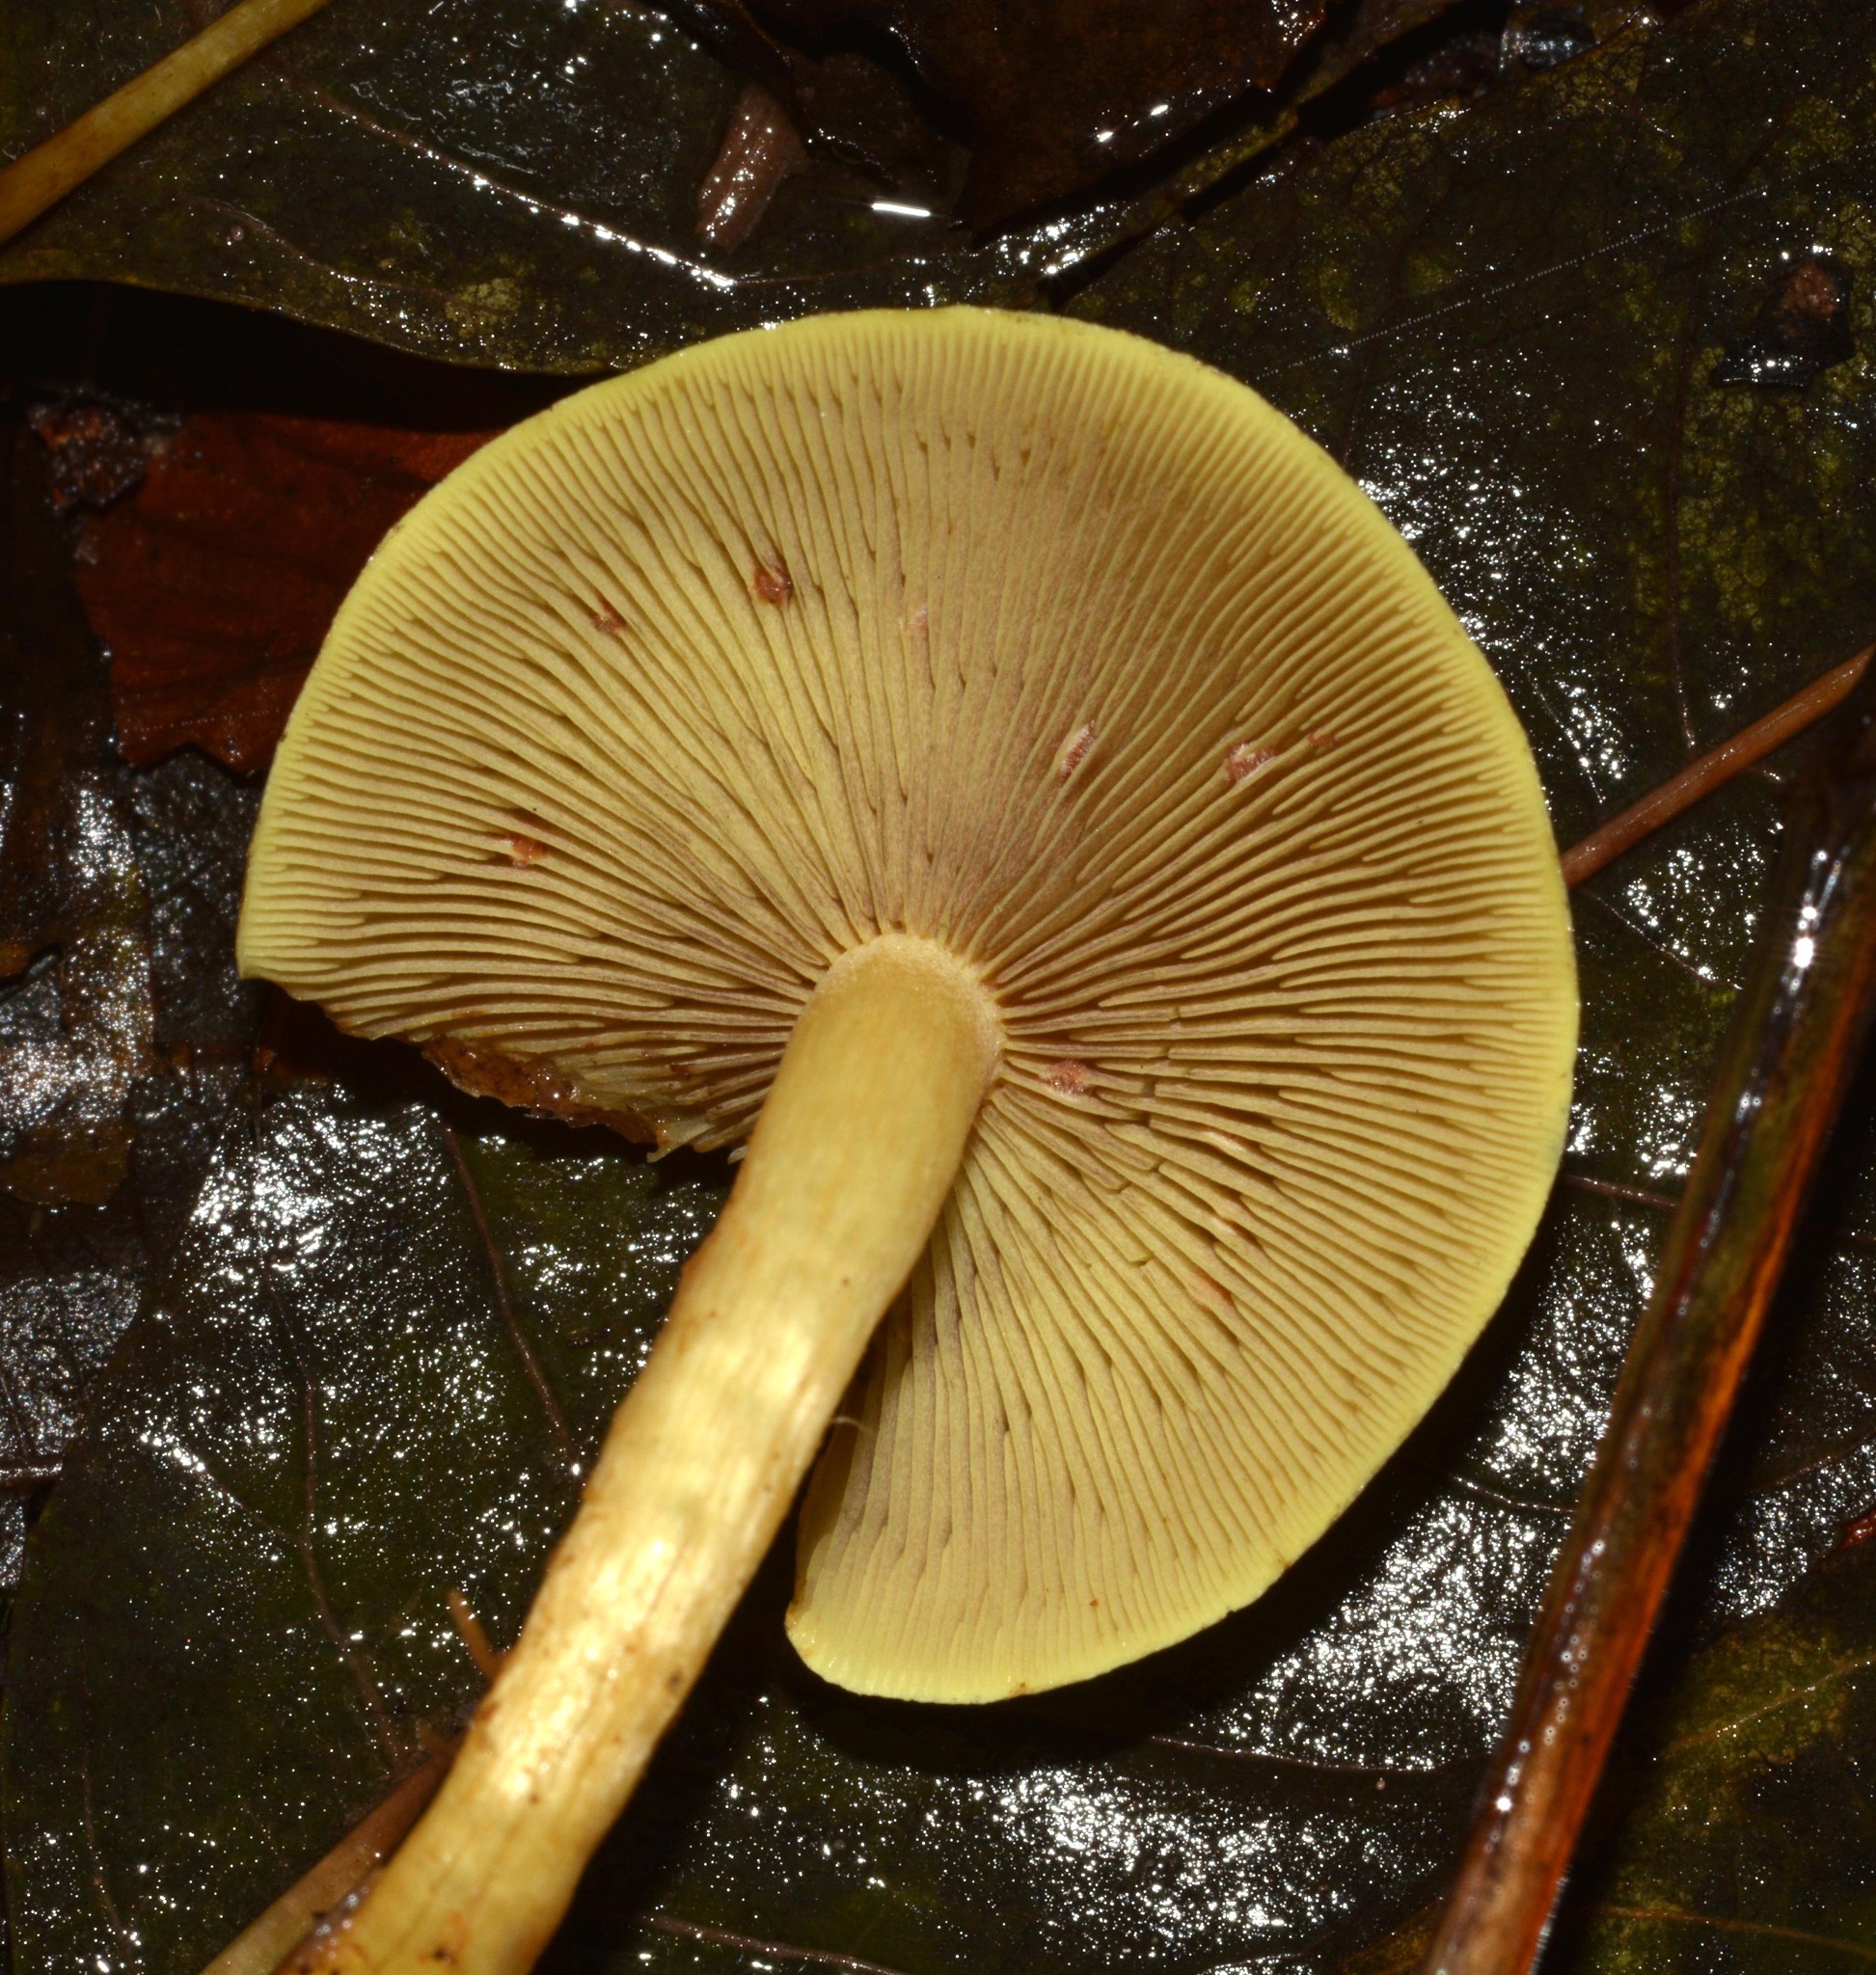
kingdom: Fungi
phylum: Basidiomycota
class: Agaricomycetes
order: Agaricales
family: Strophariaceae
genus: Hypholoma
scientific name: Hypholoma fasciculare
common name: Sulphur tuft
